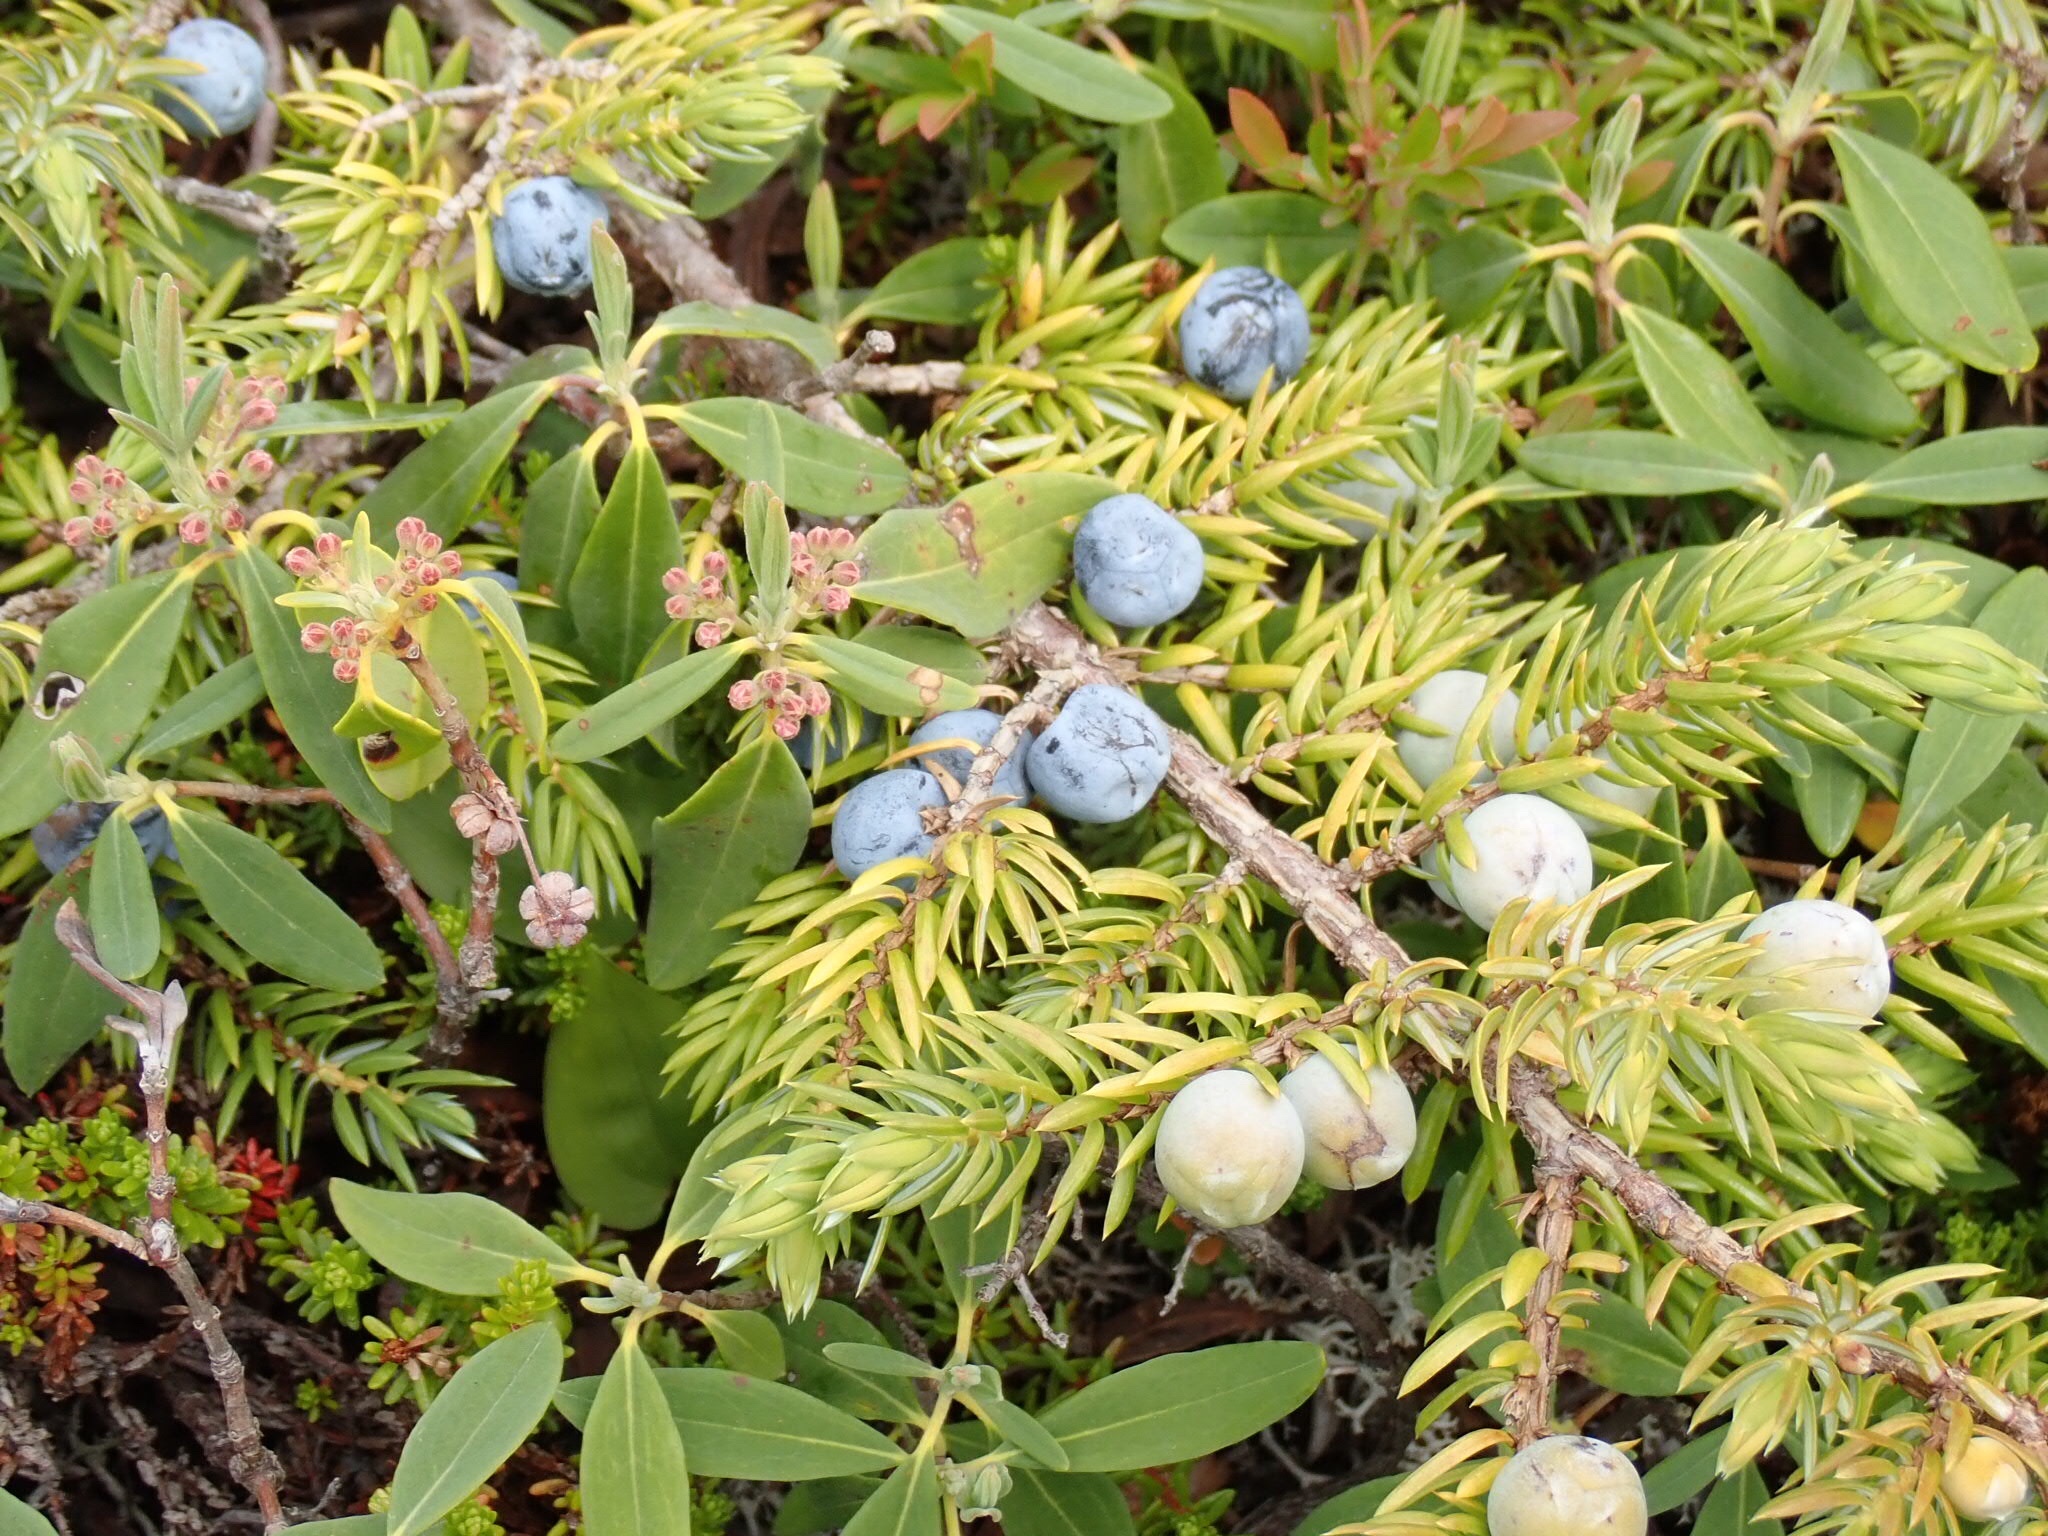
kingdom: Plantae
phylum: Tracheophyta
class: Pinopsida
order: Pinales
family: Cupressaceae
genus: Juniperus
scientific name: Juniperus communis
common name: Common juniper
